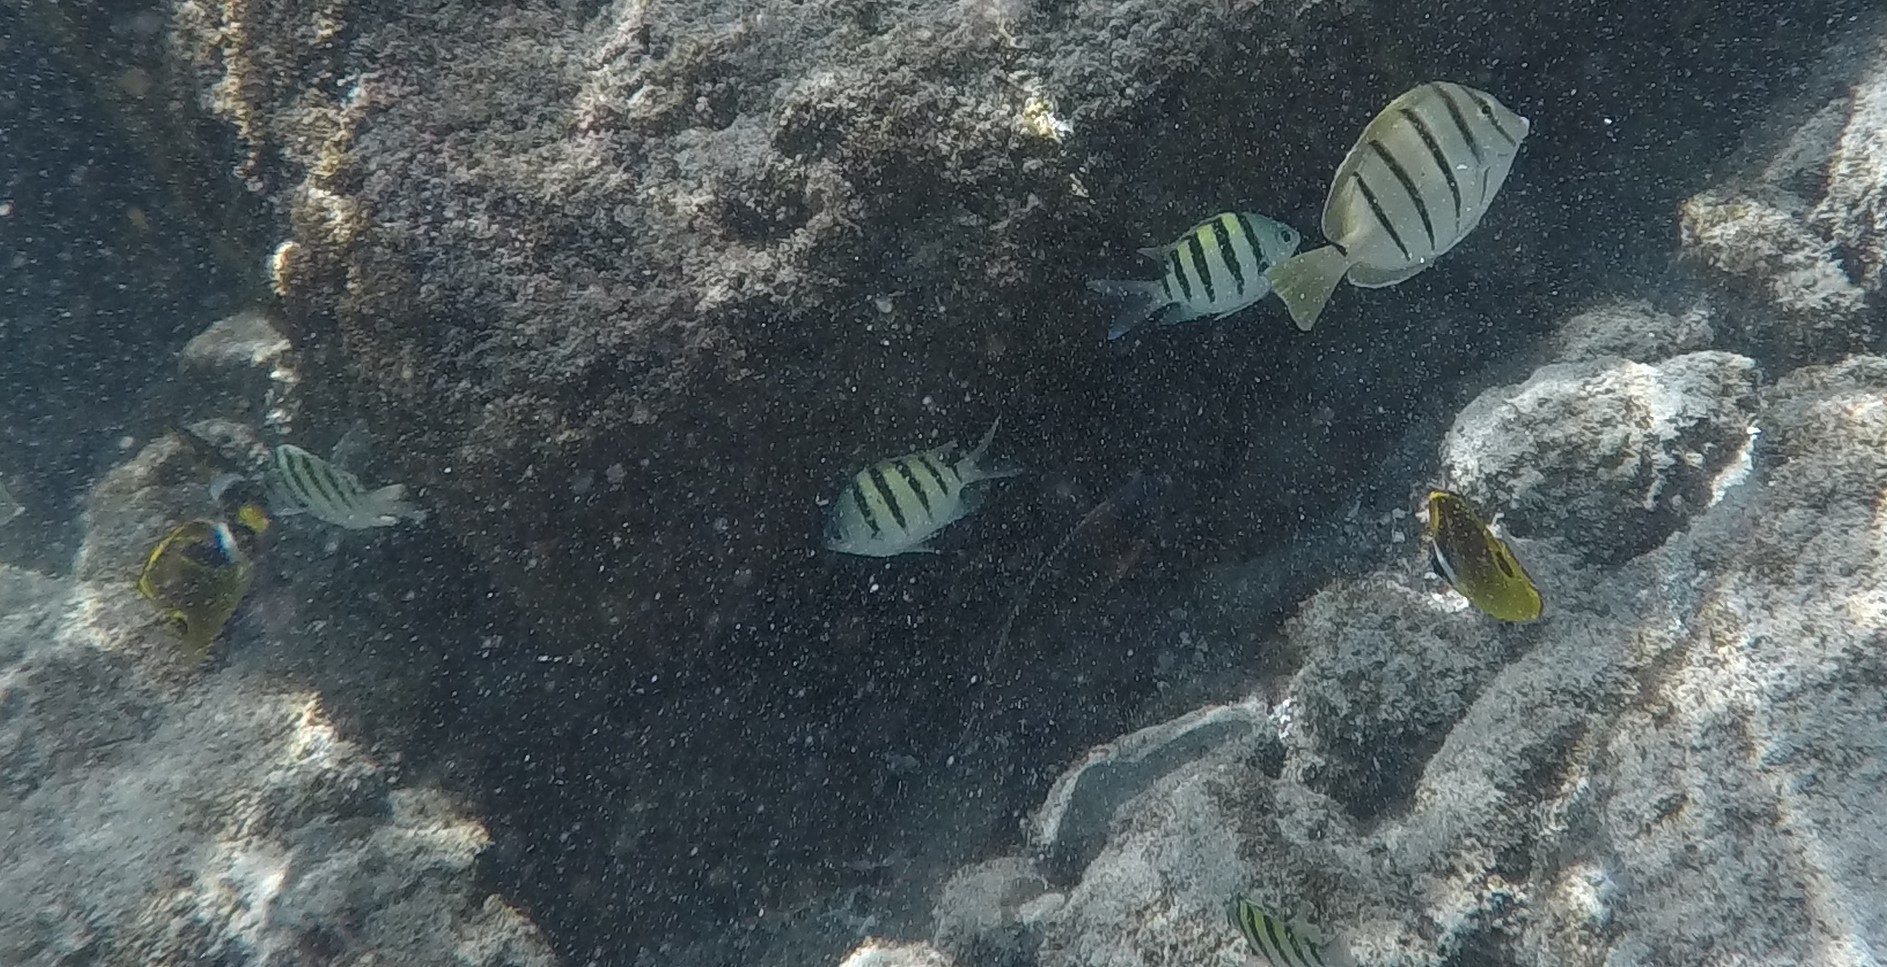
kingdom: Animalia
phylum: Chordata
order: Perciformes
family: Pomacentridae
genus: Abudefduf
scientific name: Abudefduf abdominalis
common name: Green damselfish
